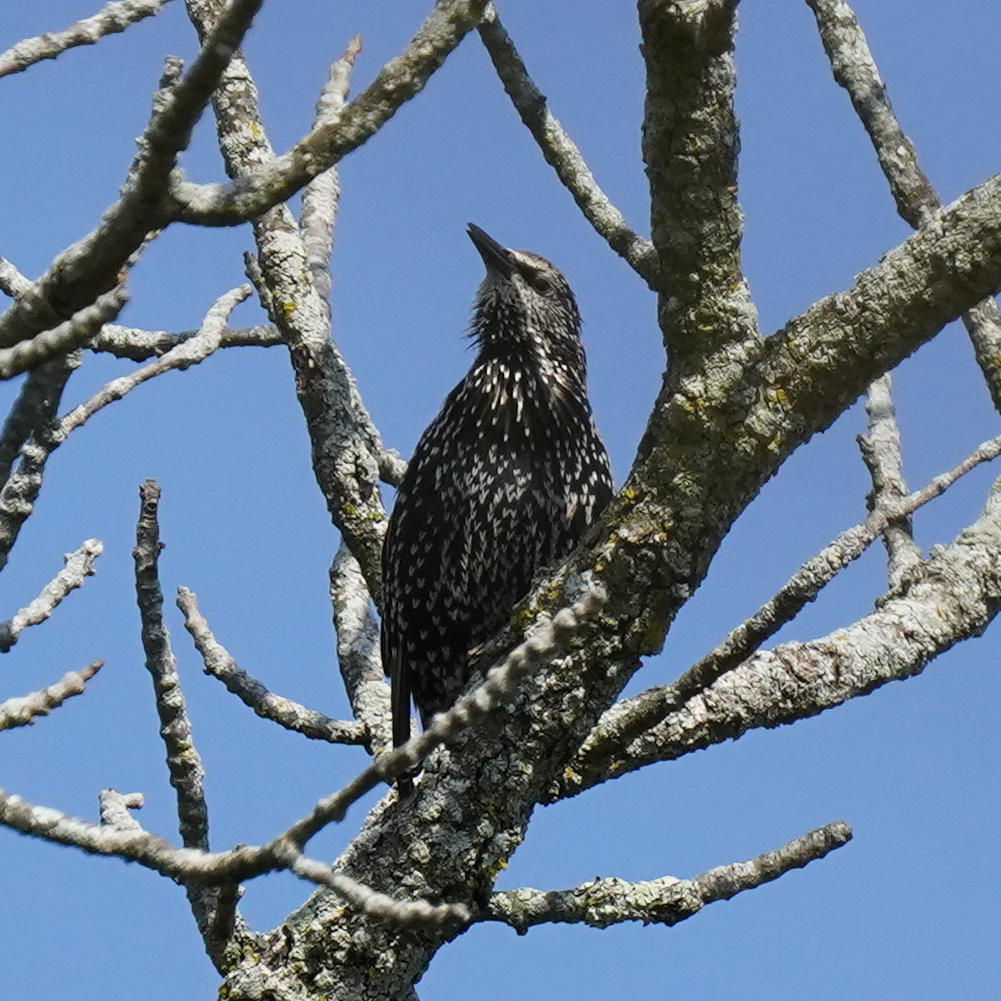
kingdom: Animalia
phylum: Chordata
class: Aves
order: Passeriformes
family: Sturnidae
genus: Sturnus
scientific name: Sturnus vulgaris
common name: Common starling
